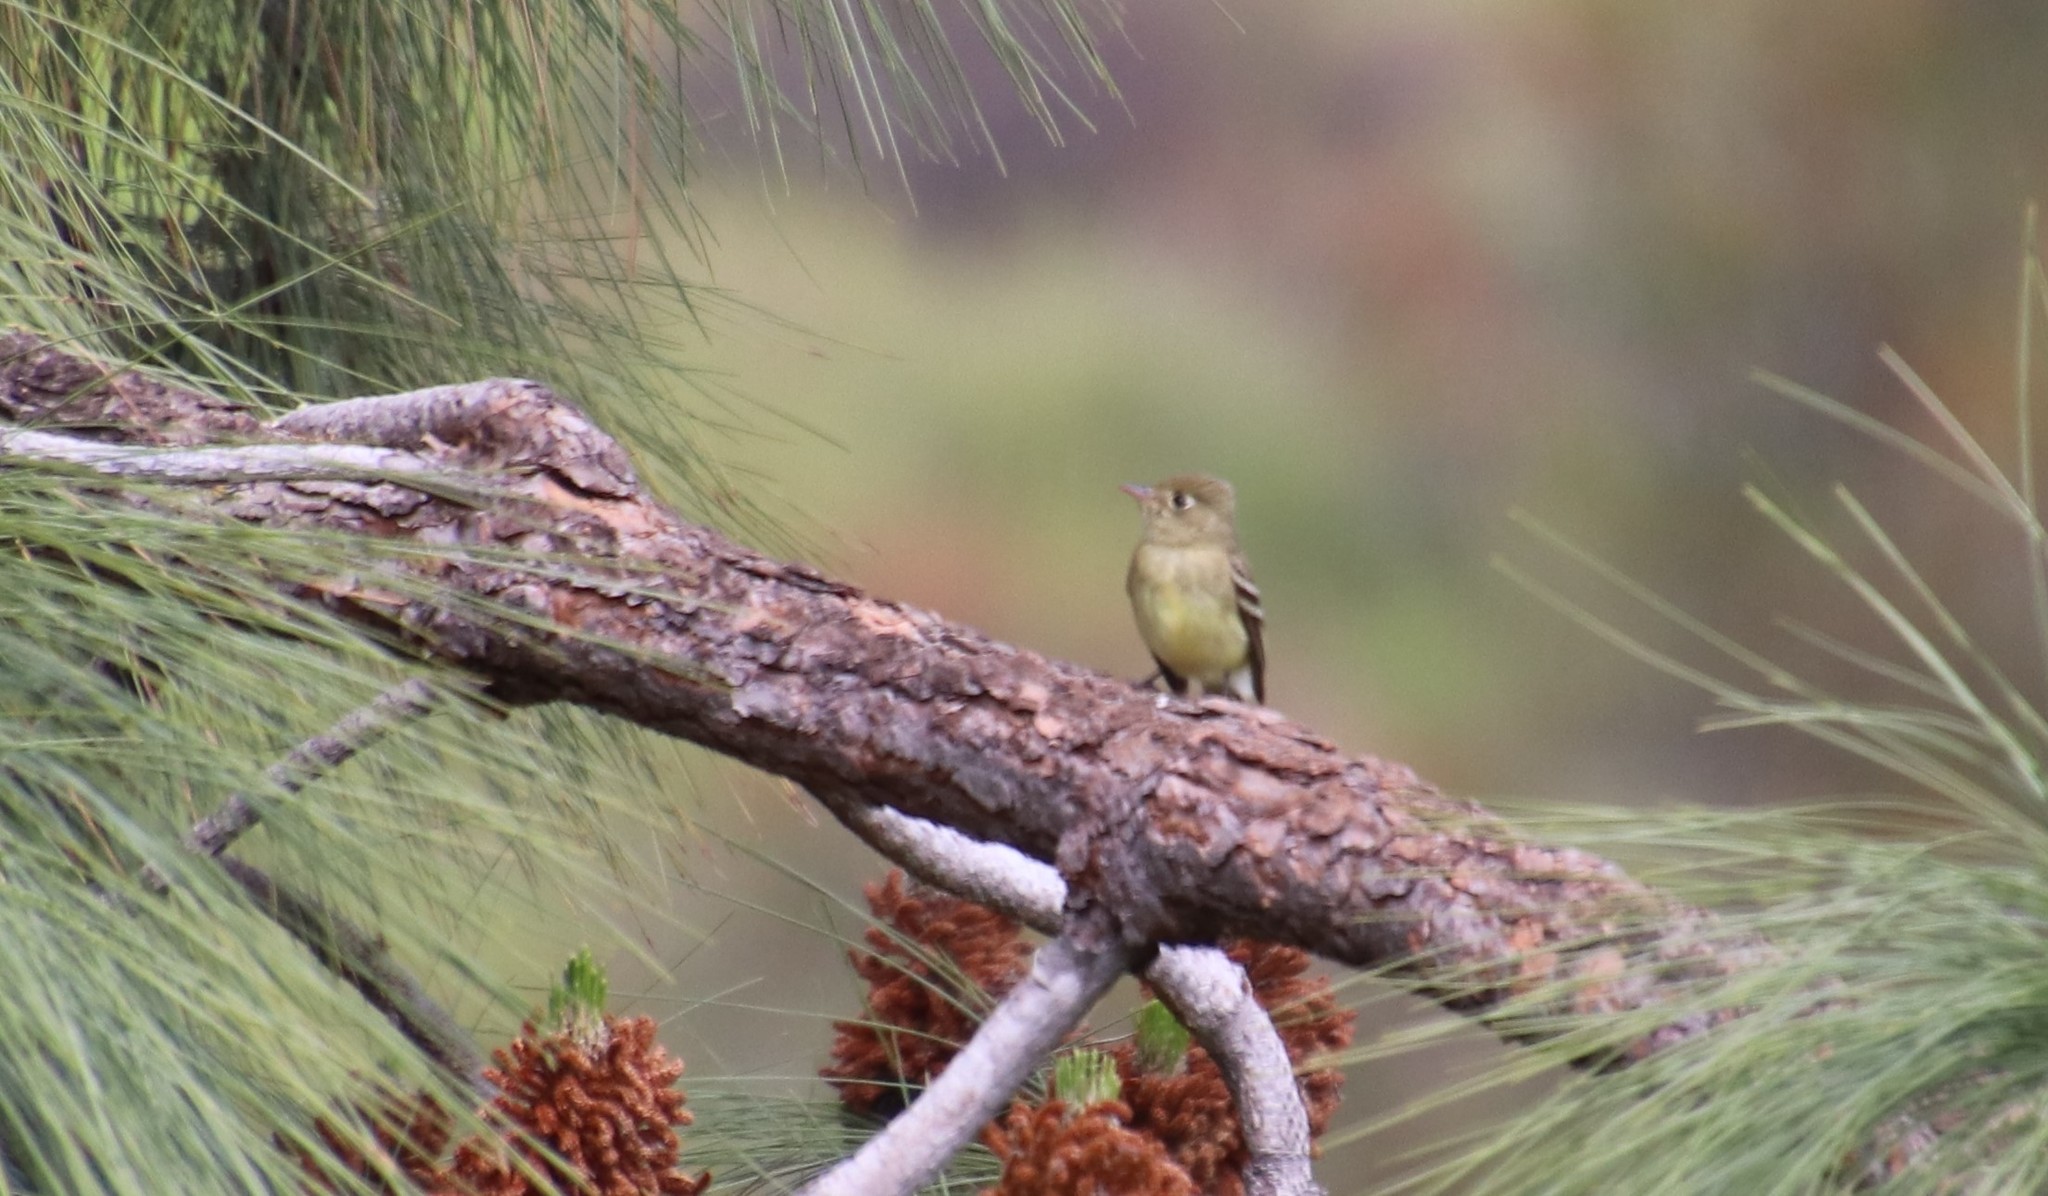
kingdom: Animalia
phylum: Chordata
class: Aves
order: Passeriformes
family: Tyrannidae
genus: Empidonax
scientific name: Empidonax difficilis
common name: Pacific-slope flycatcher
